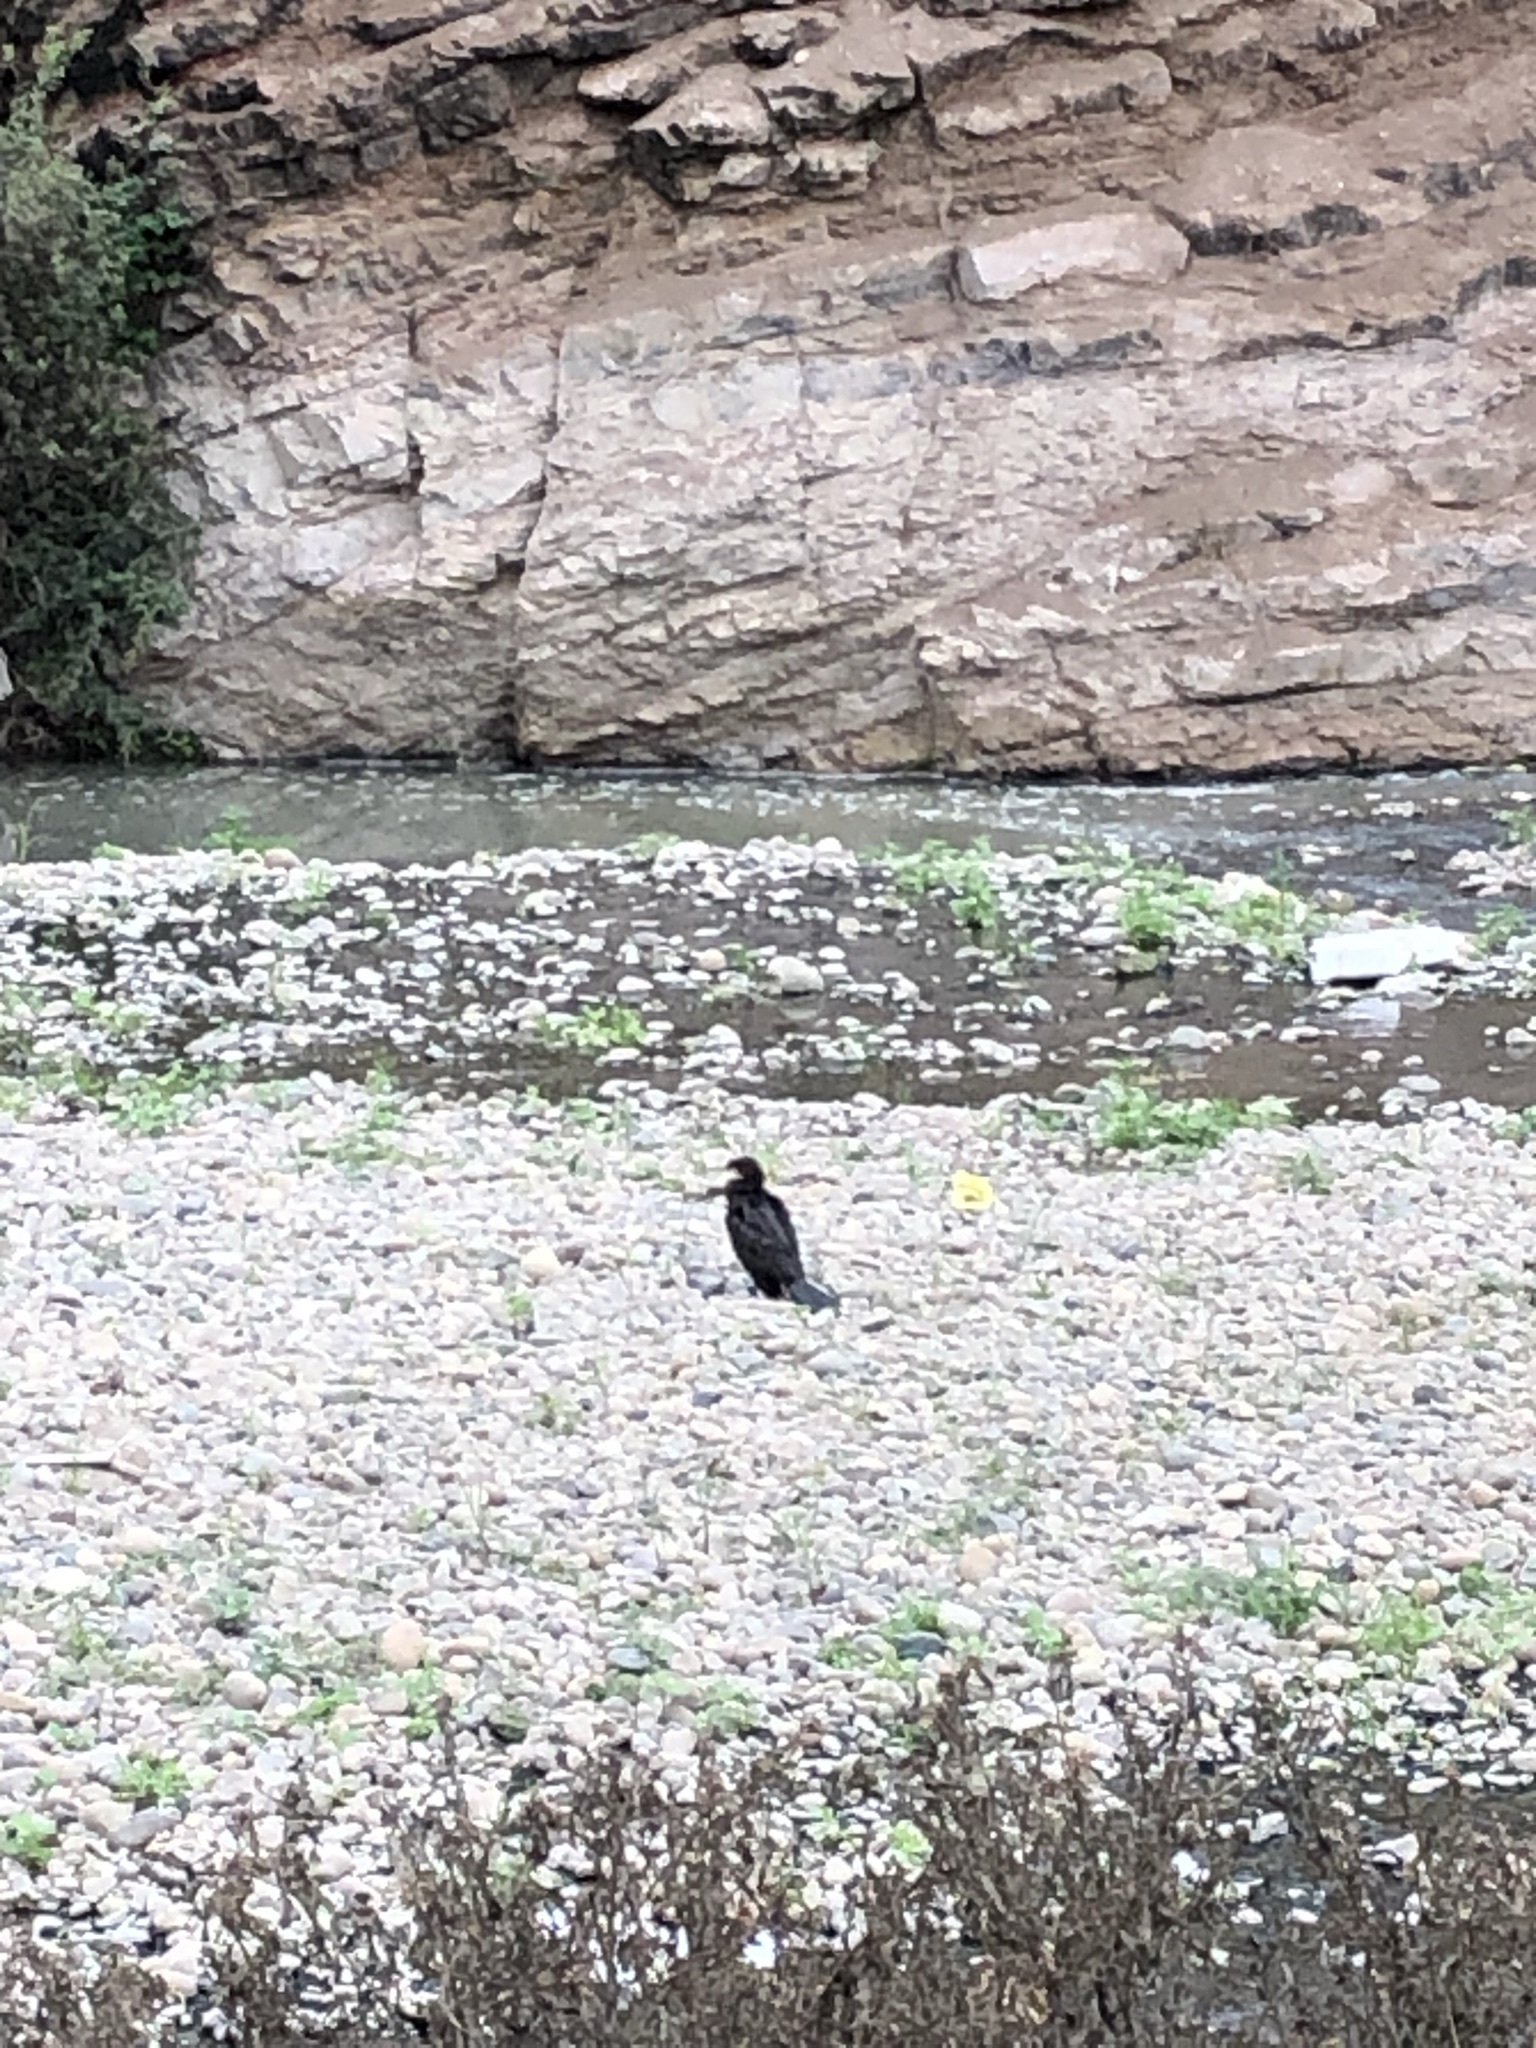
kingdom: Animalia
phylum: Chordata
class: Aves
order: Suliformes
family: Phalacrocoracidae
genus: Phalacrocorax
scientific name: Phalacrocorax brasilianus
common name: Neotropic cormorant
